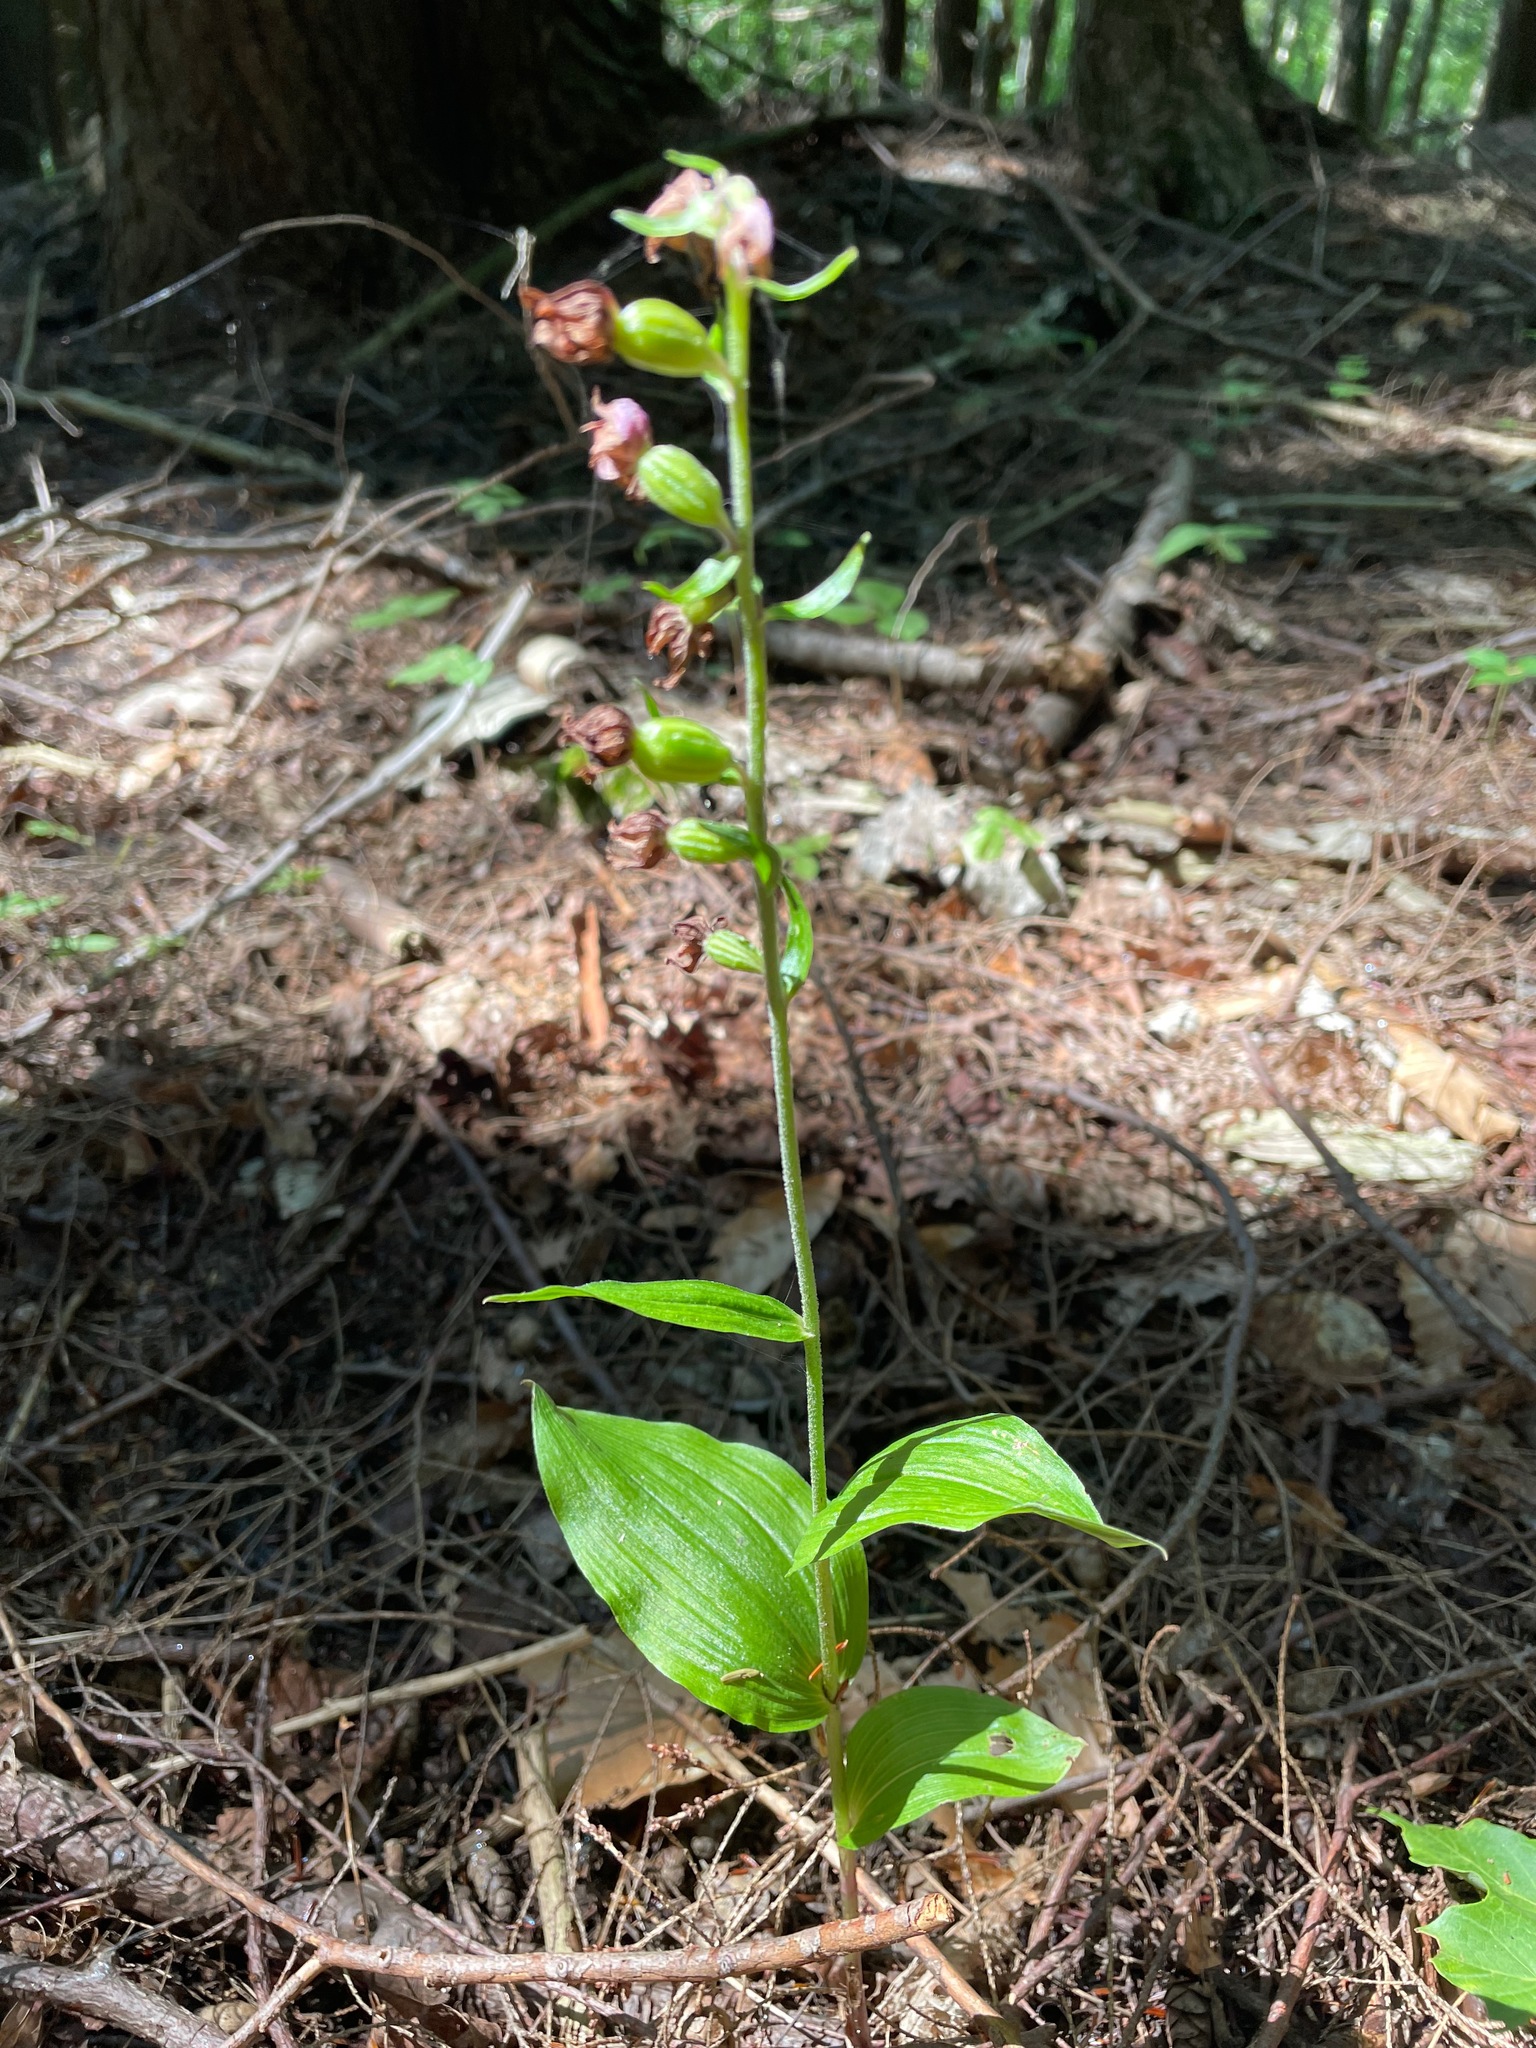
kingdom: Plantae
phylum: Tracheophyta
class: Liliopsida
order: Asparagales
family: Orchidaceae
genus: Epipactis
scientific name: Epipactis helleborine
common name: Broad-leaved helleborine
